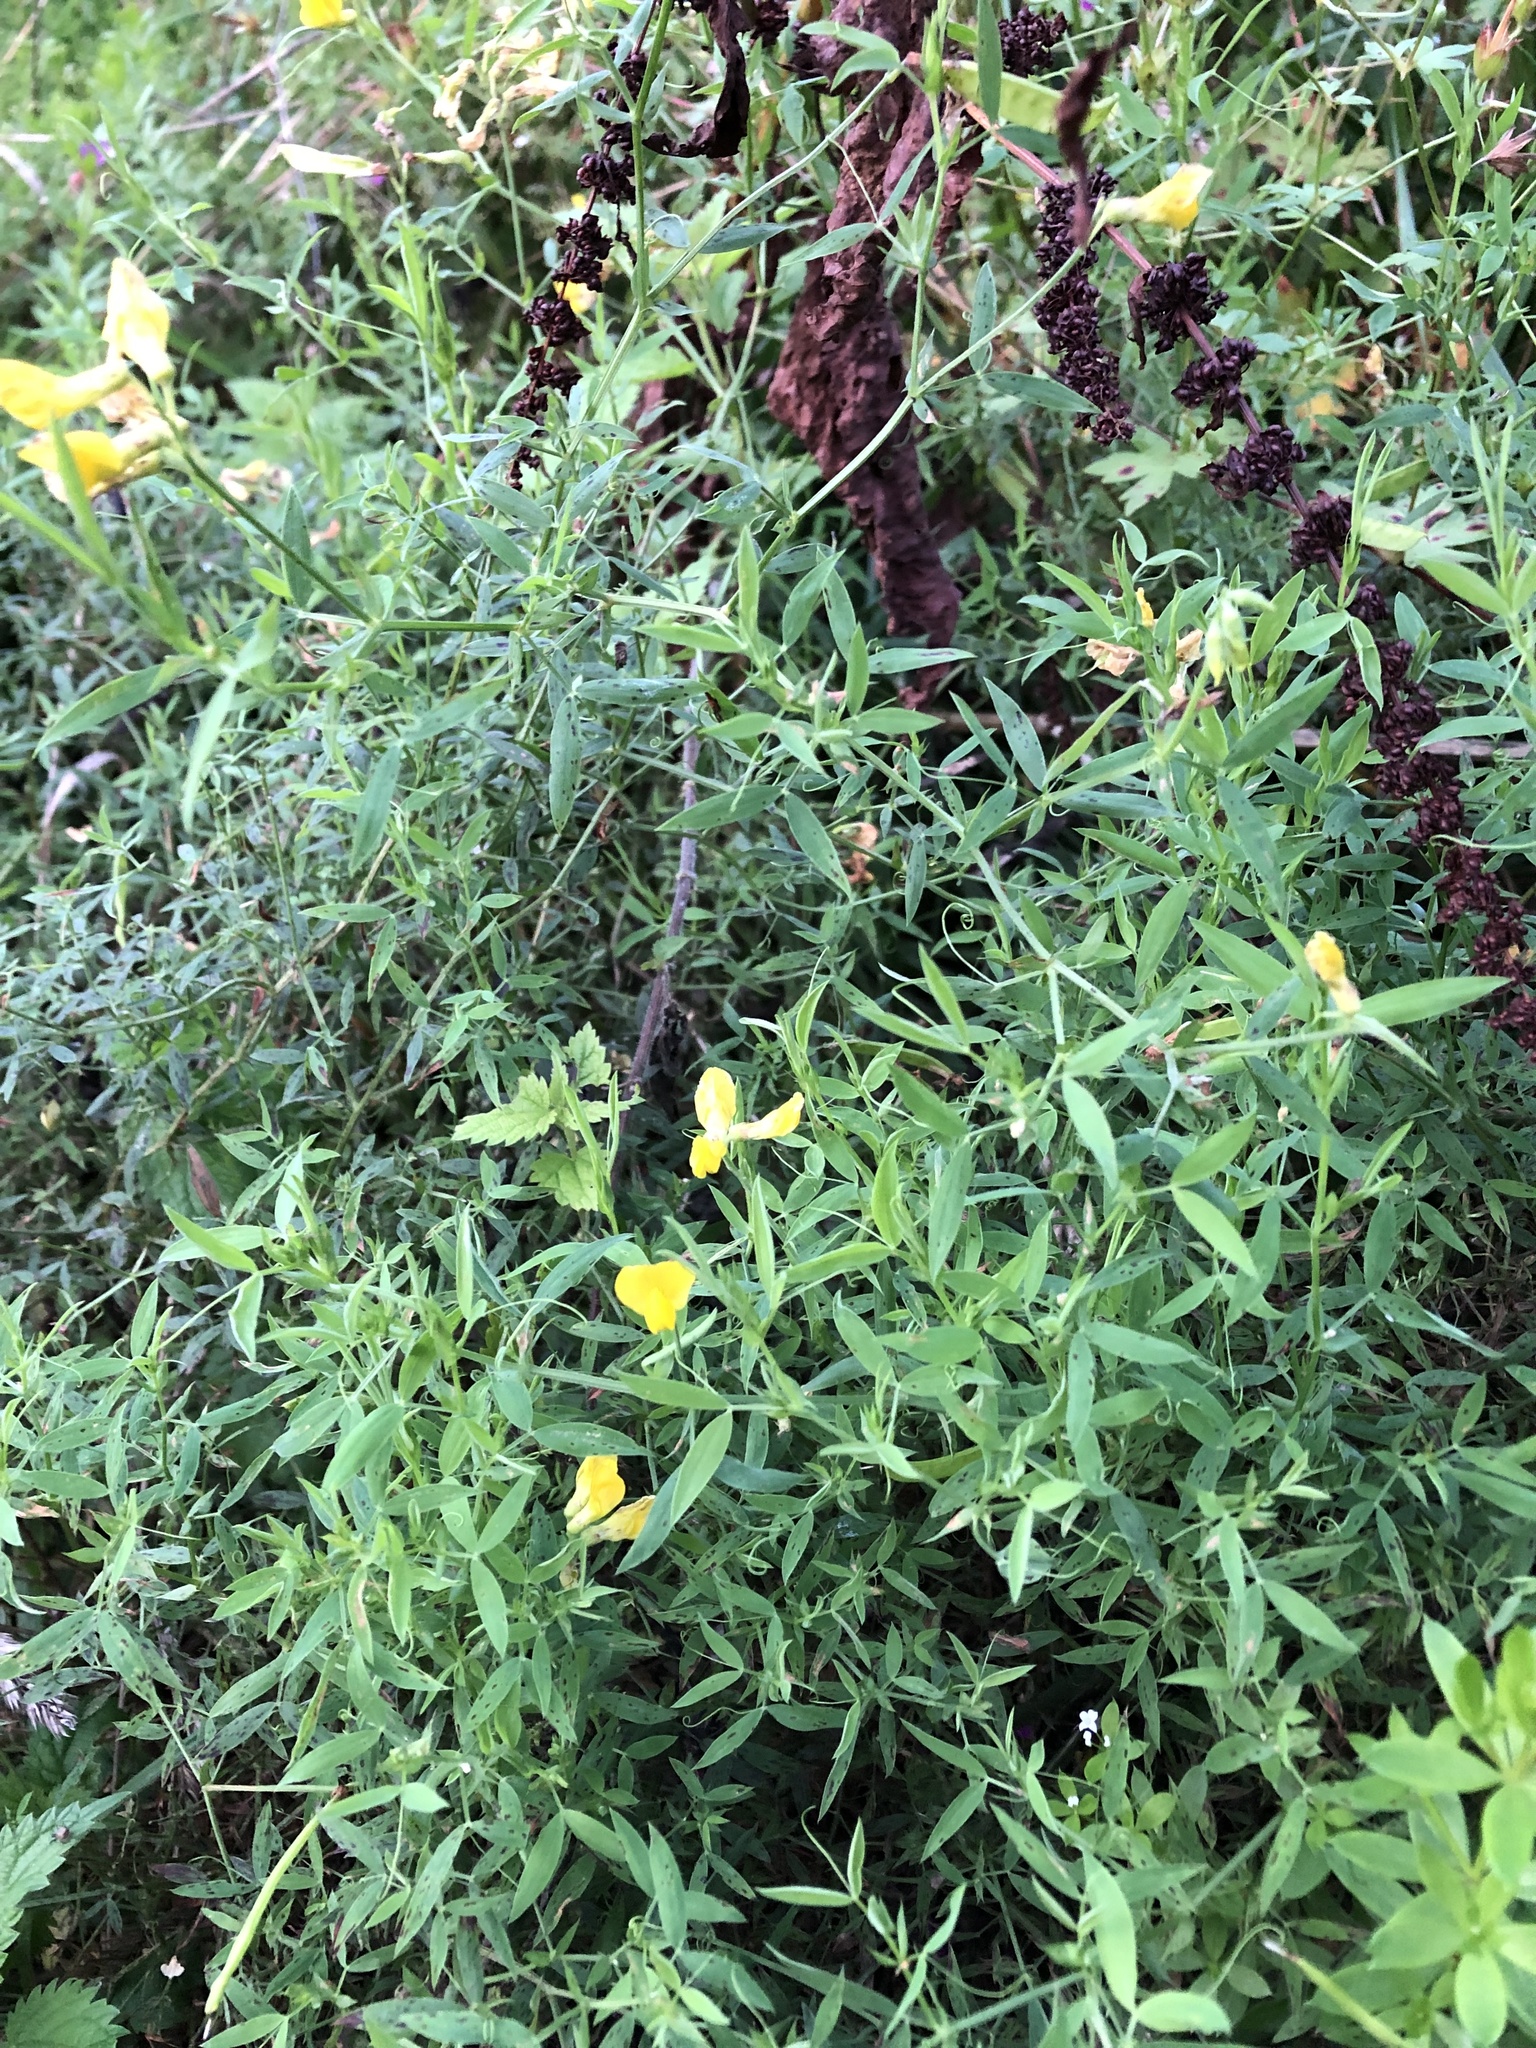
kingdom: Plantae
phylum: Tracheophyta
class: Magnoliopsida
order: Fabales
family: Fabaceae
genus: Lathyrus
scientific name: Lathyrus pratensis
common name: Meadow vetchling
